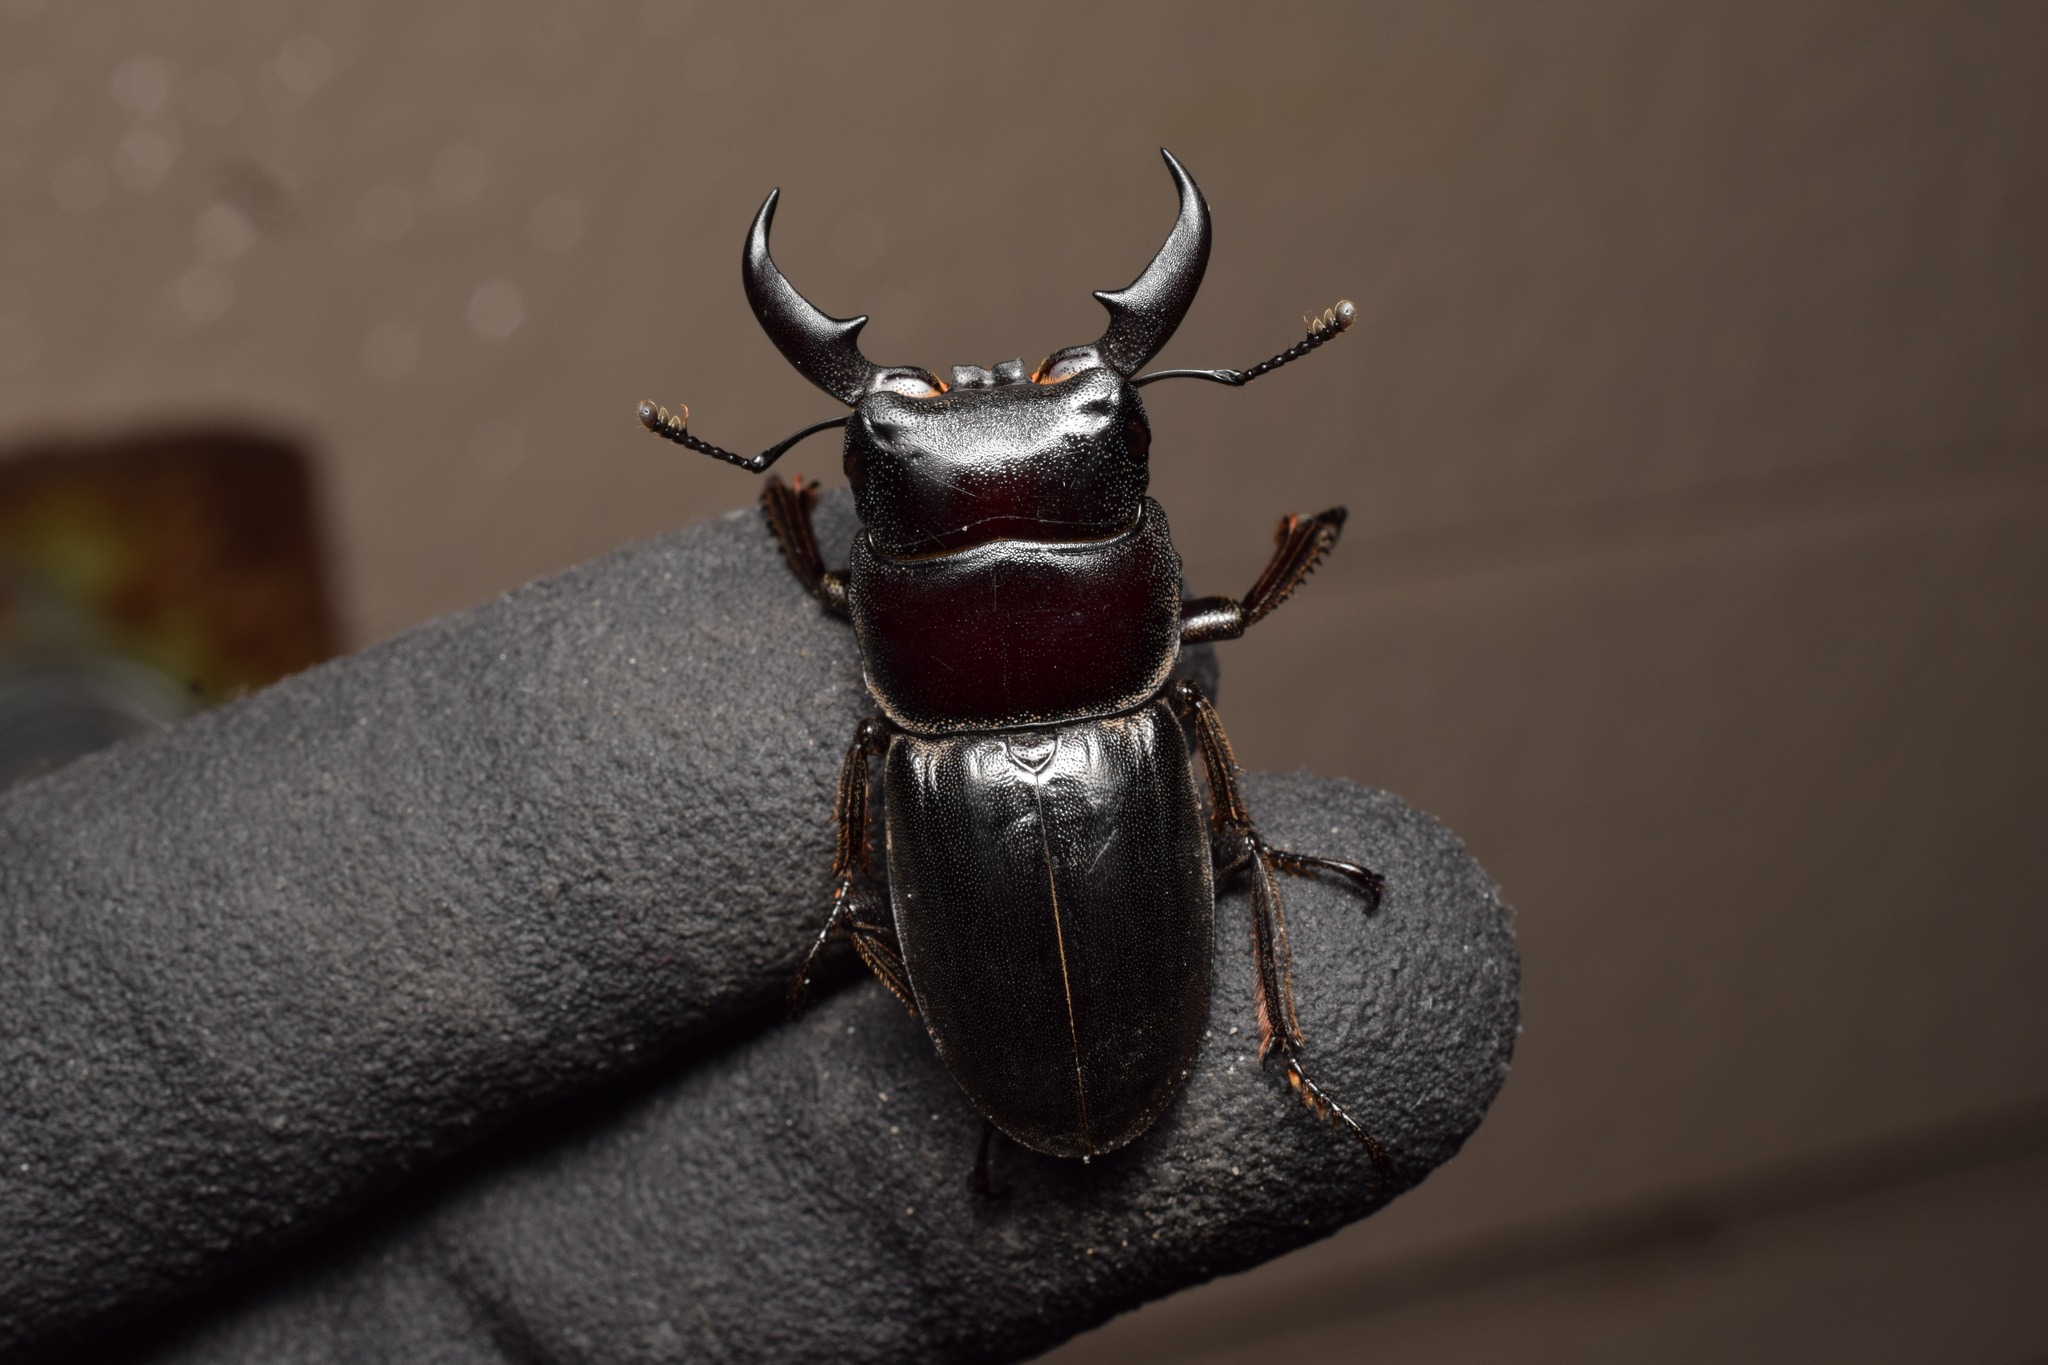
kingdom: Animalia
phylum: Arthropoda
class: Insecta
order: Coleoptera
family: Lucanidae
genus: Serrognathus
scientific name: Serrognathus titanus
